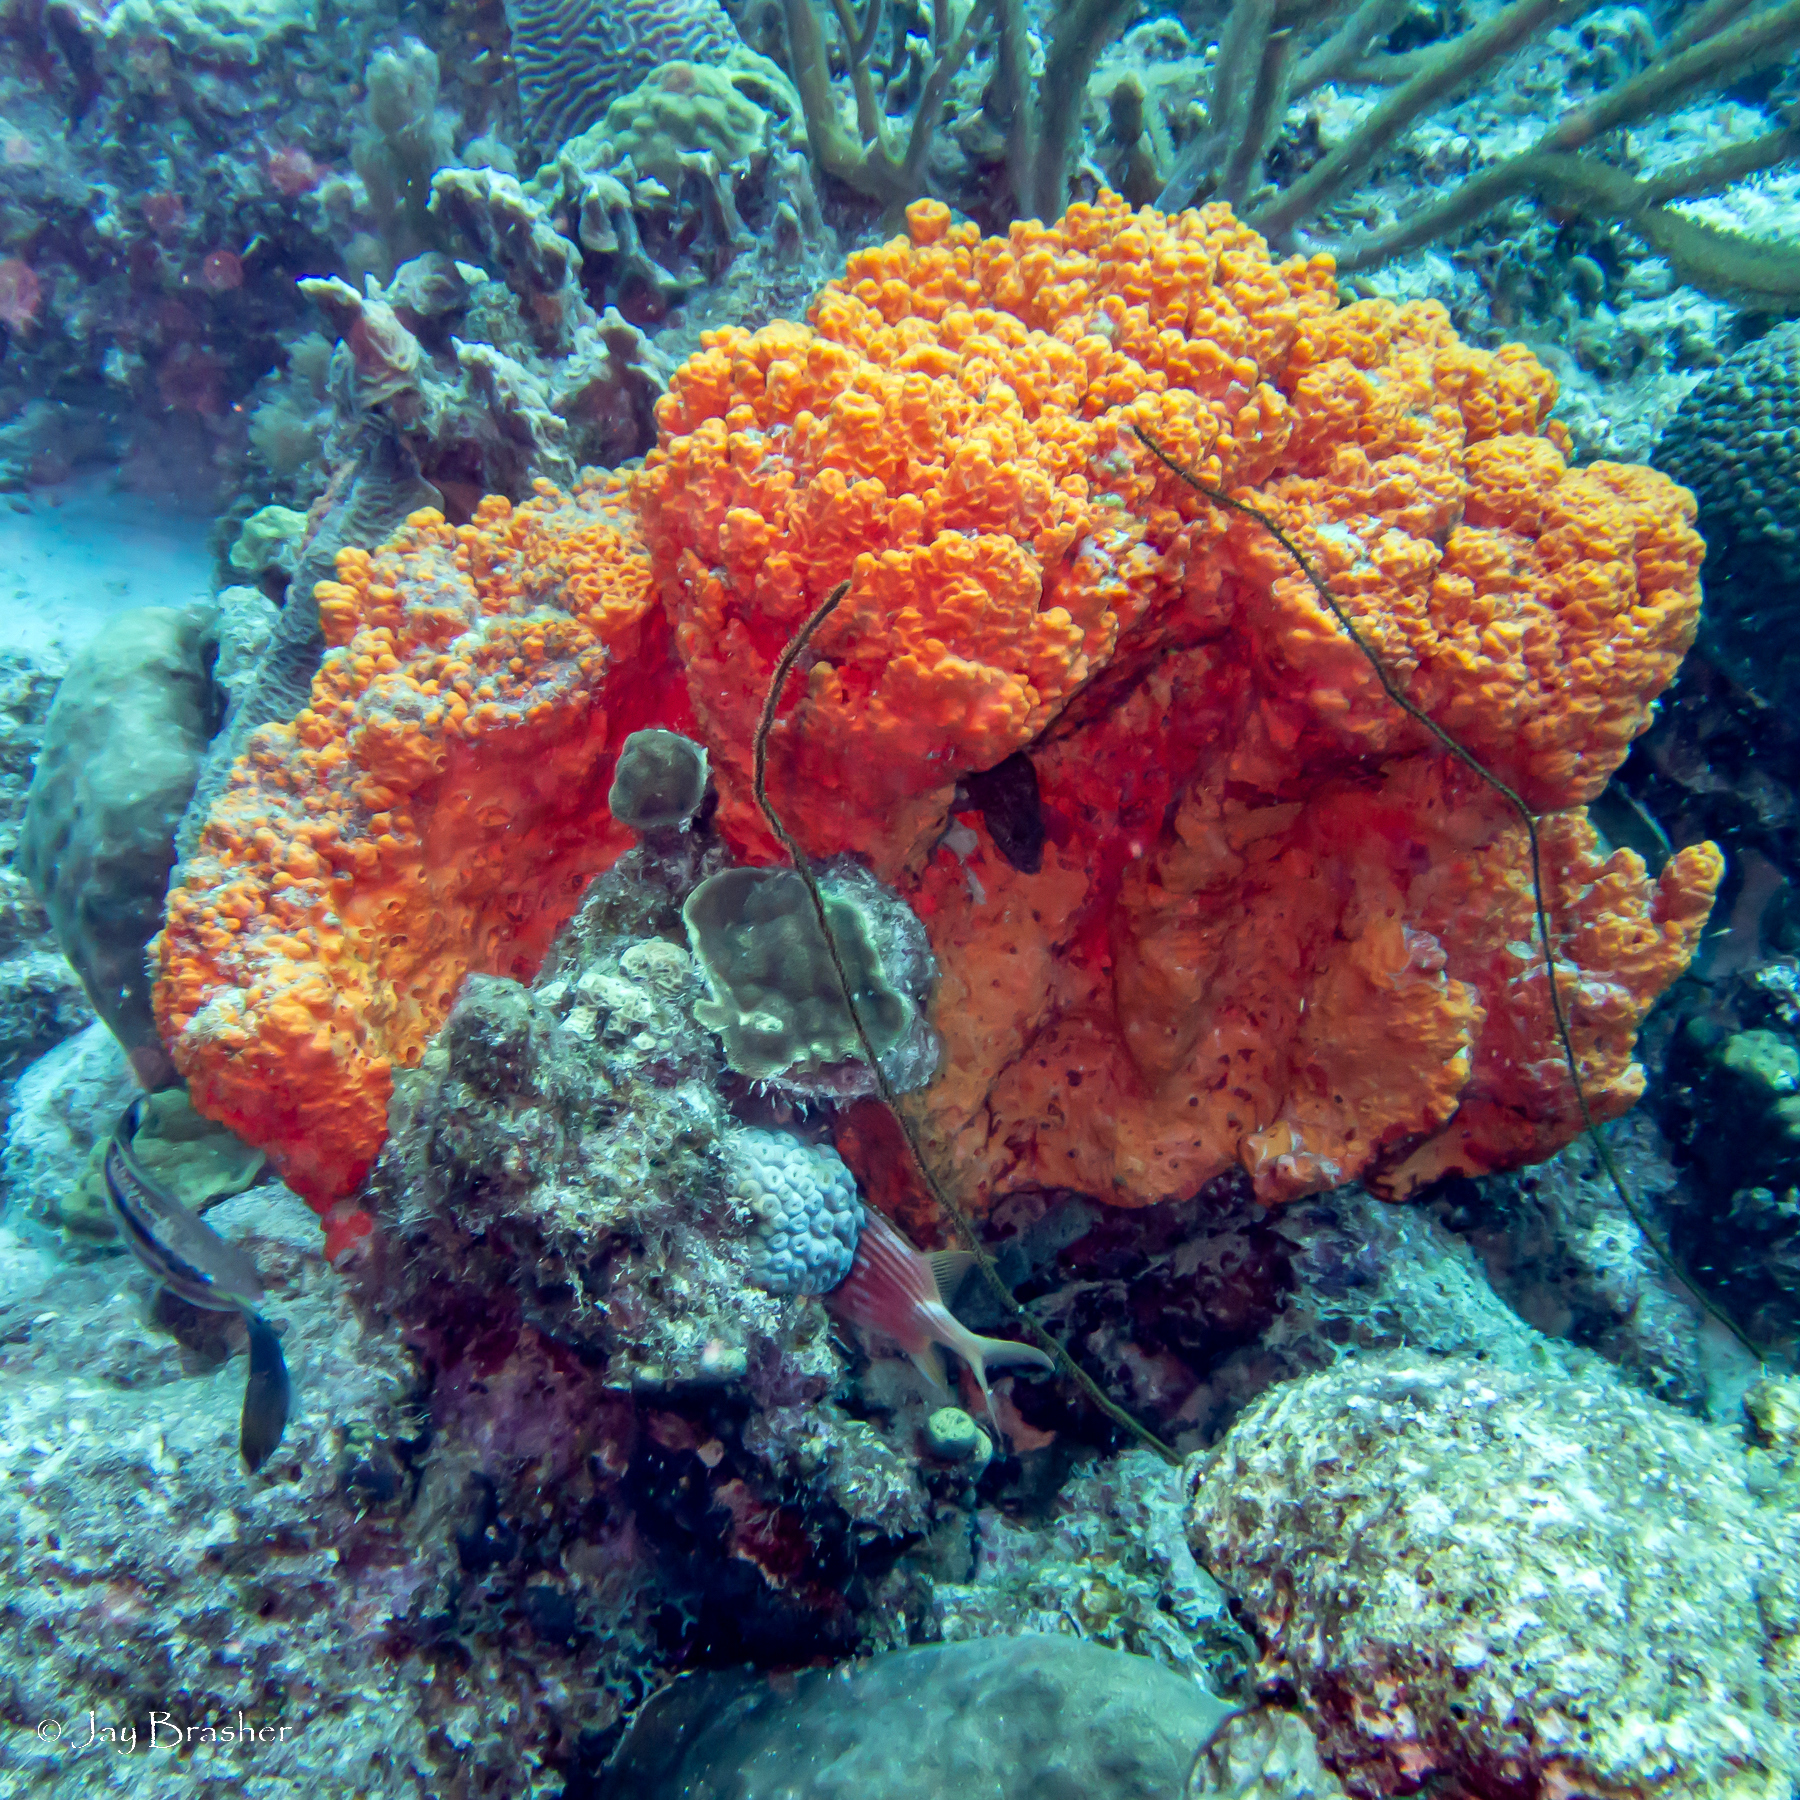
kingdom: Animalia
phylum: Porifera
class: Demospongiae
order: Agelasida
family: Agelasidae
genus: Agelas
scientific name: Agelas clathrodes
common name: Orange elephant ear sponge
